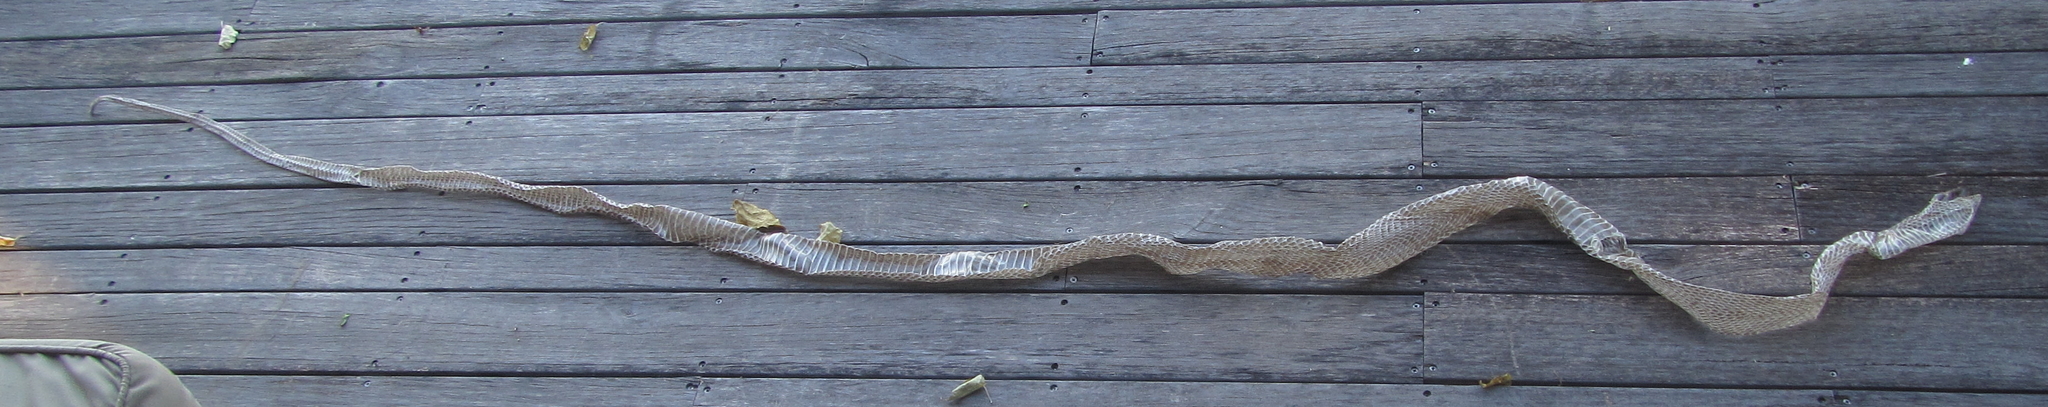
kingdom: Animalia
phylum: Chordata
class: Squamata
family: Elapidae
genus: Dendroaspis
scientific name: Dendroaspis polylepis
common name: Black mamba
